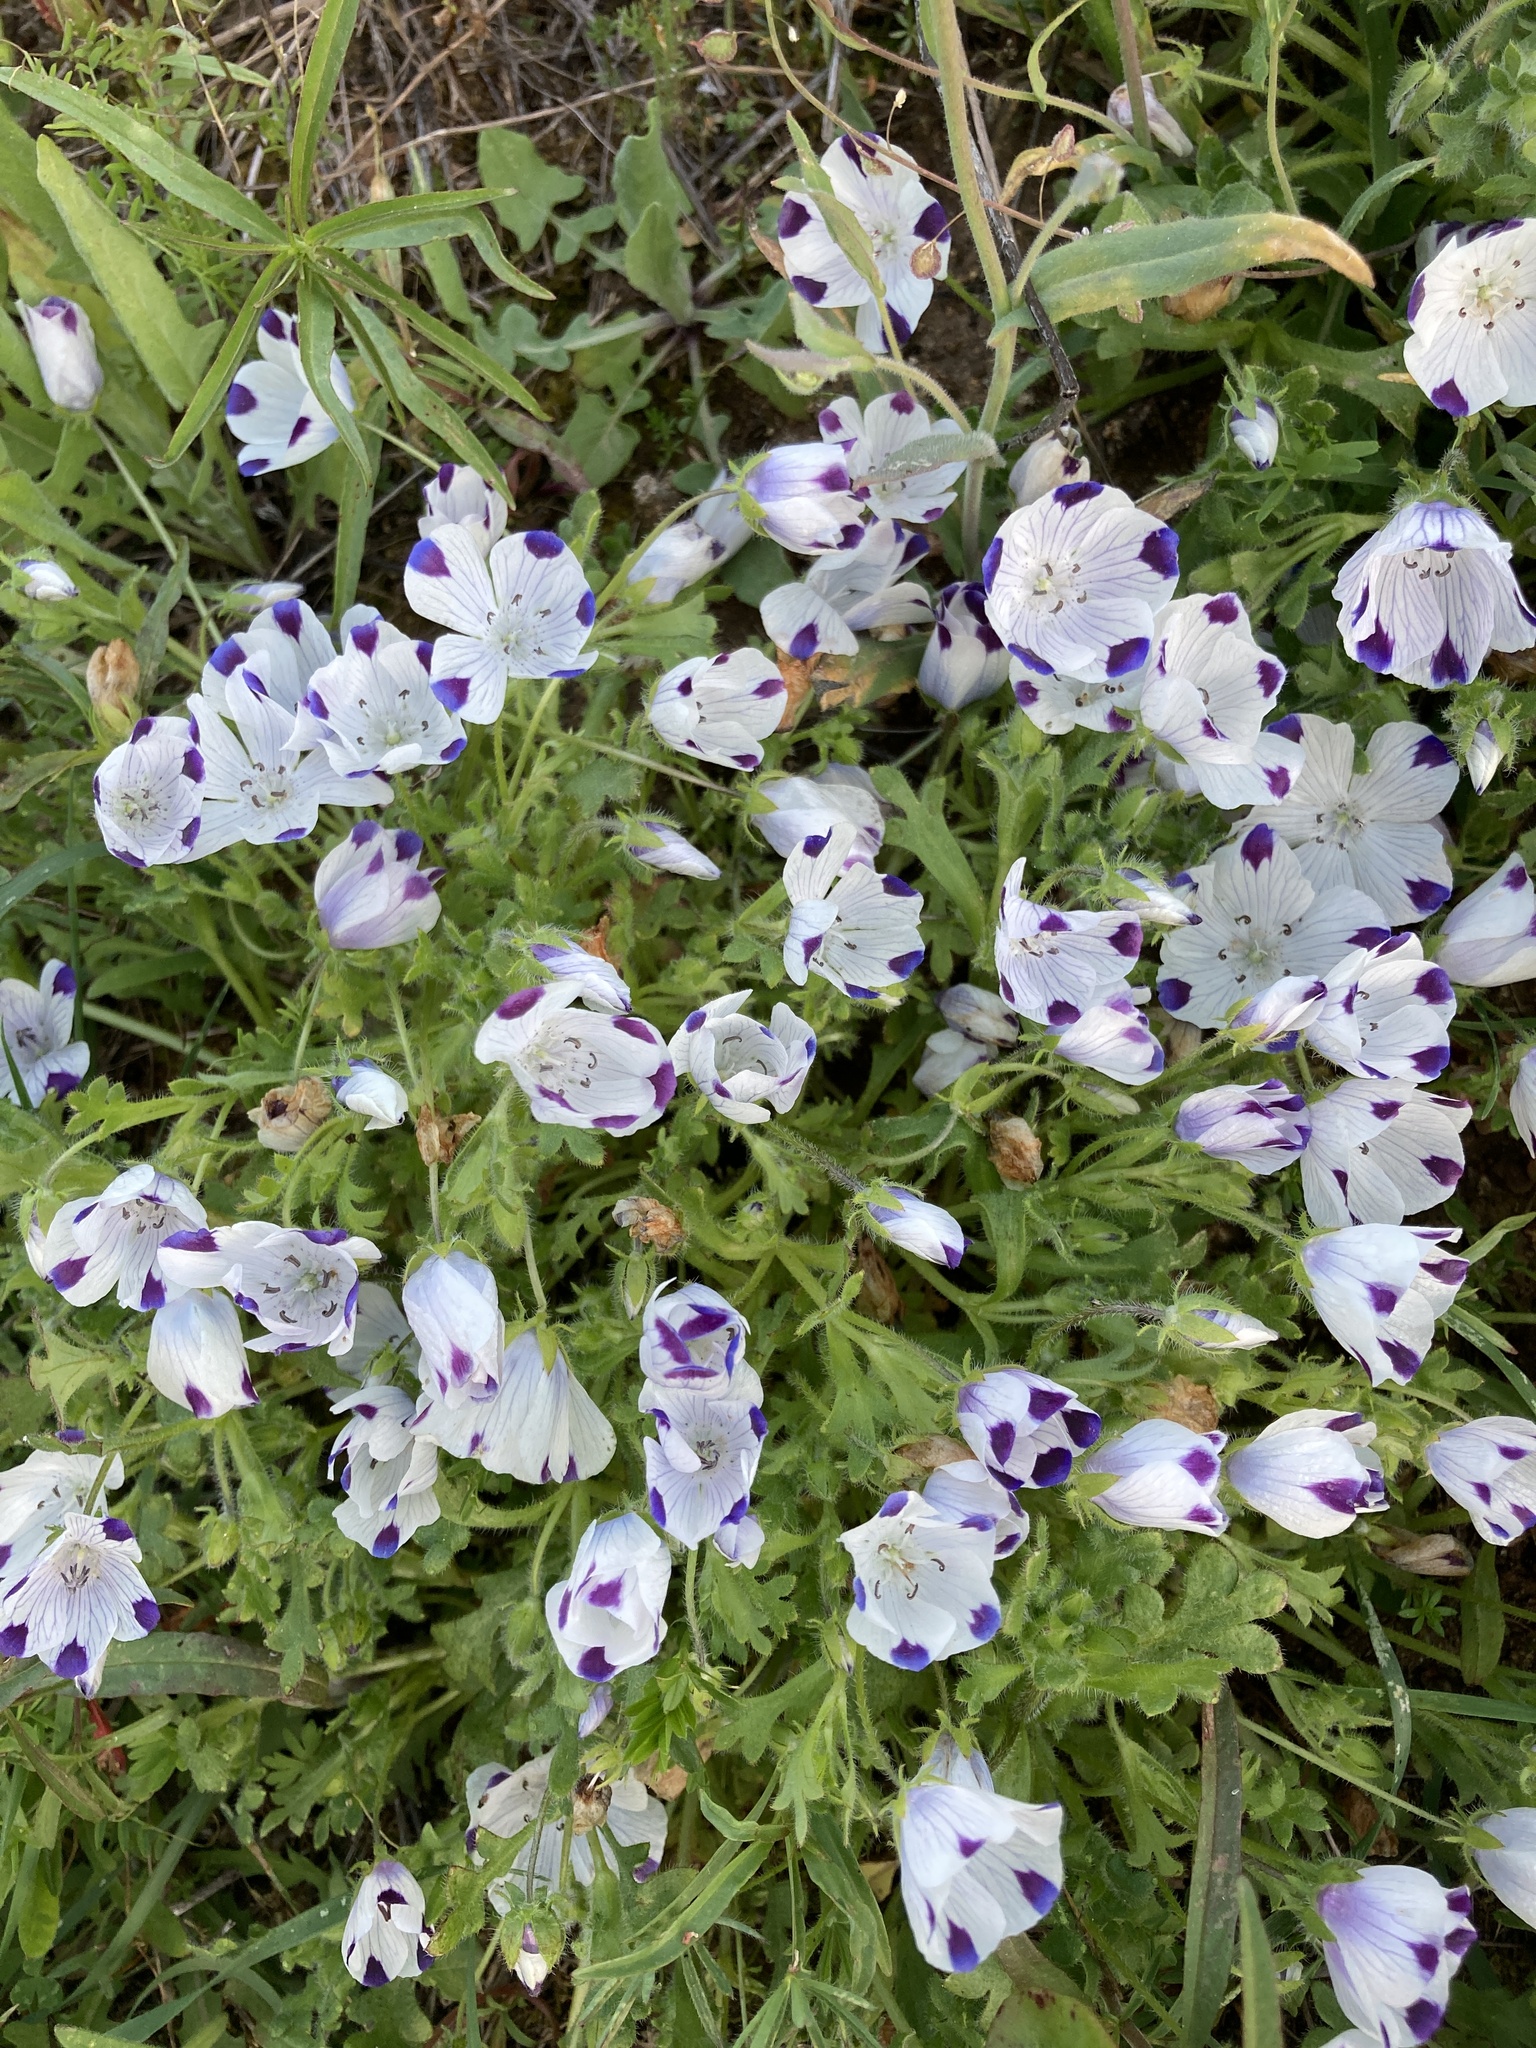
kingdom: Plantae
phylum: Tracheophyta
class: Magnoliopsida
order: Boraginales
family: Hydrophyllaceae
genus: Nemophila
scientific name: Nemophila maculata
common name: Fivespot
